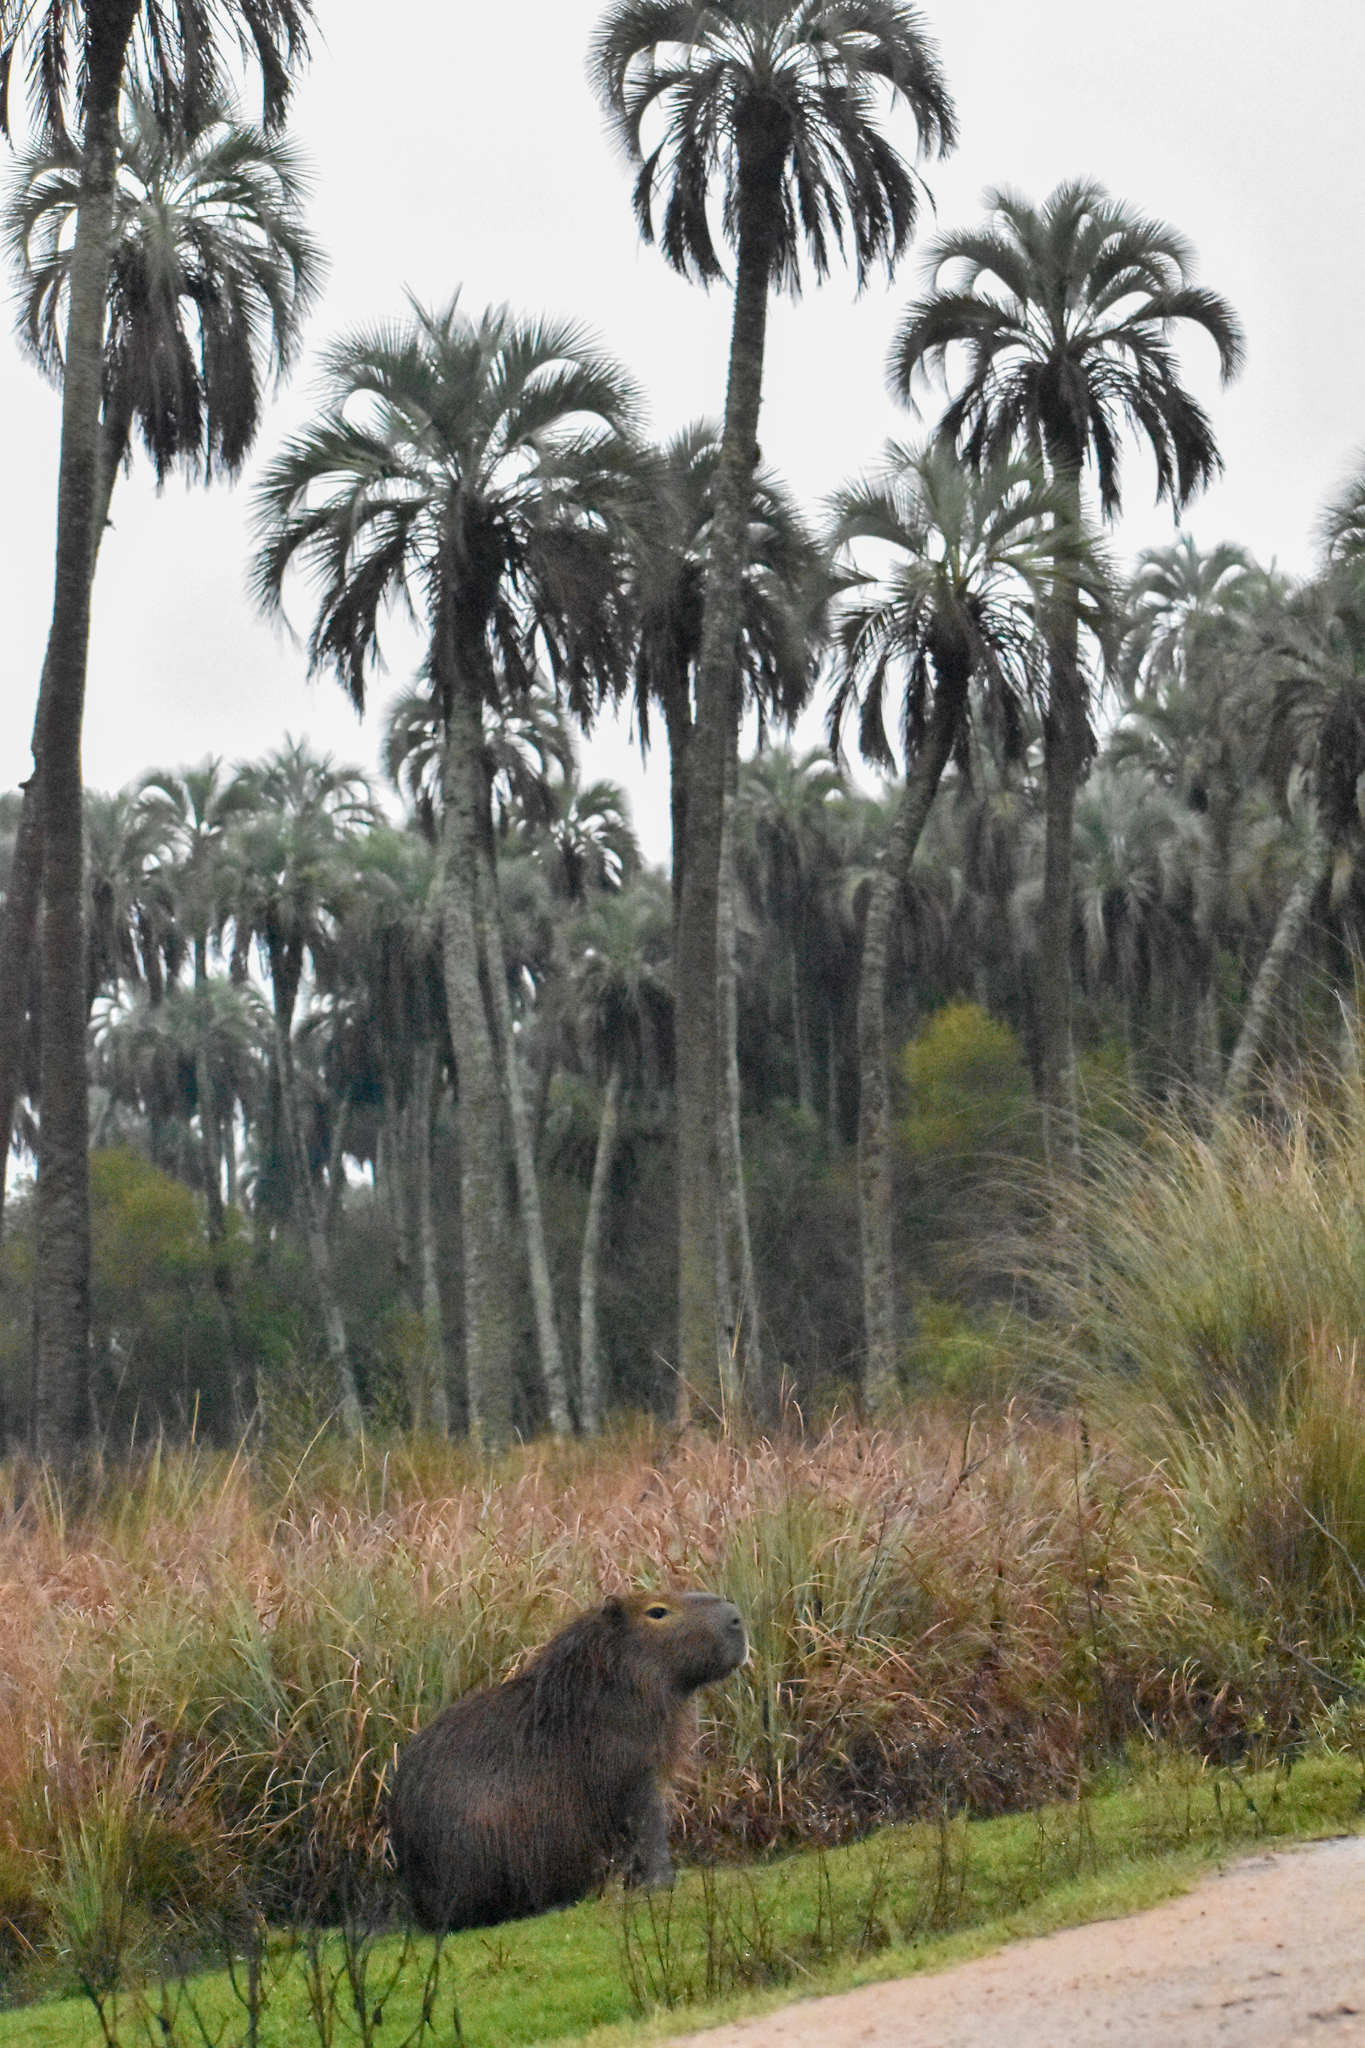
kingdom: Animalia
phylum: Chordata
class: Mammalia
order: Rodentia
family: Caviidae
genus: Hydrochoerus
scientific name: Hydrochoerus hydrochaeris
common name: Capybara
